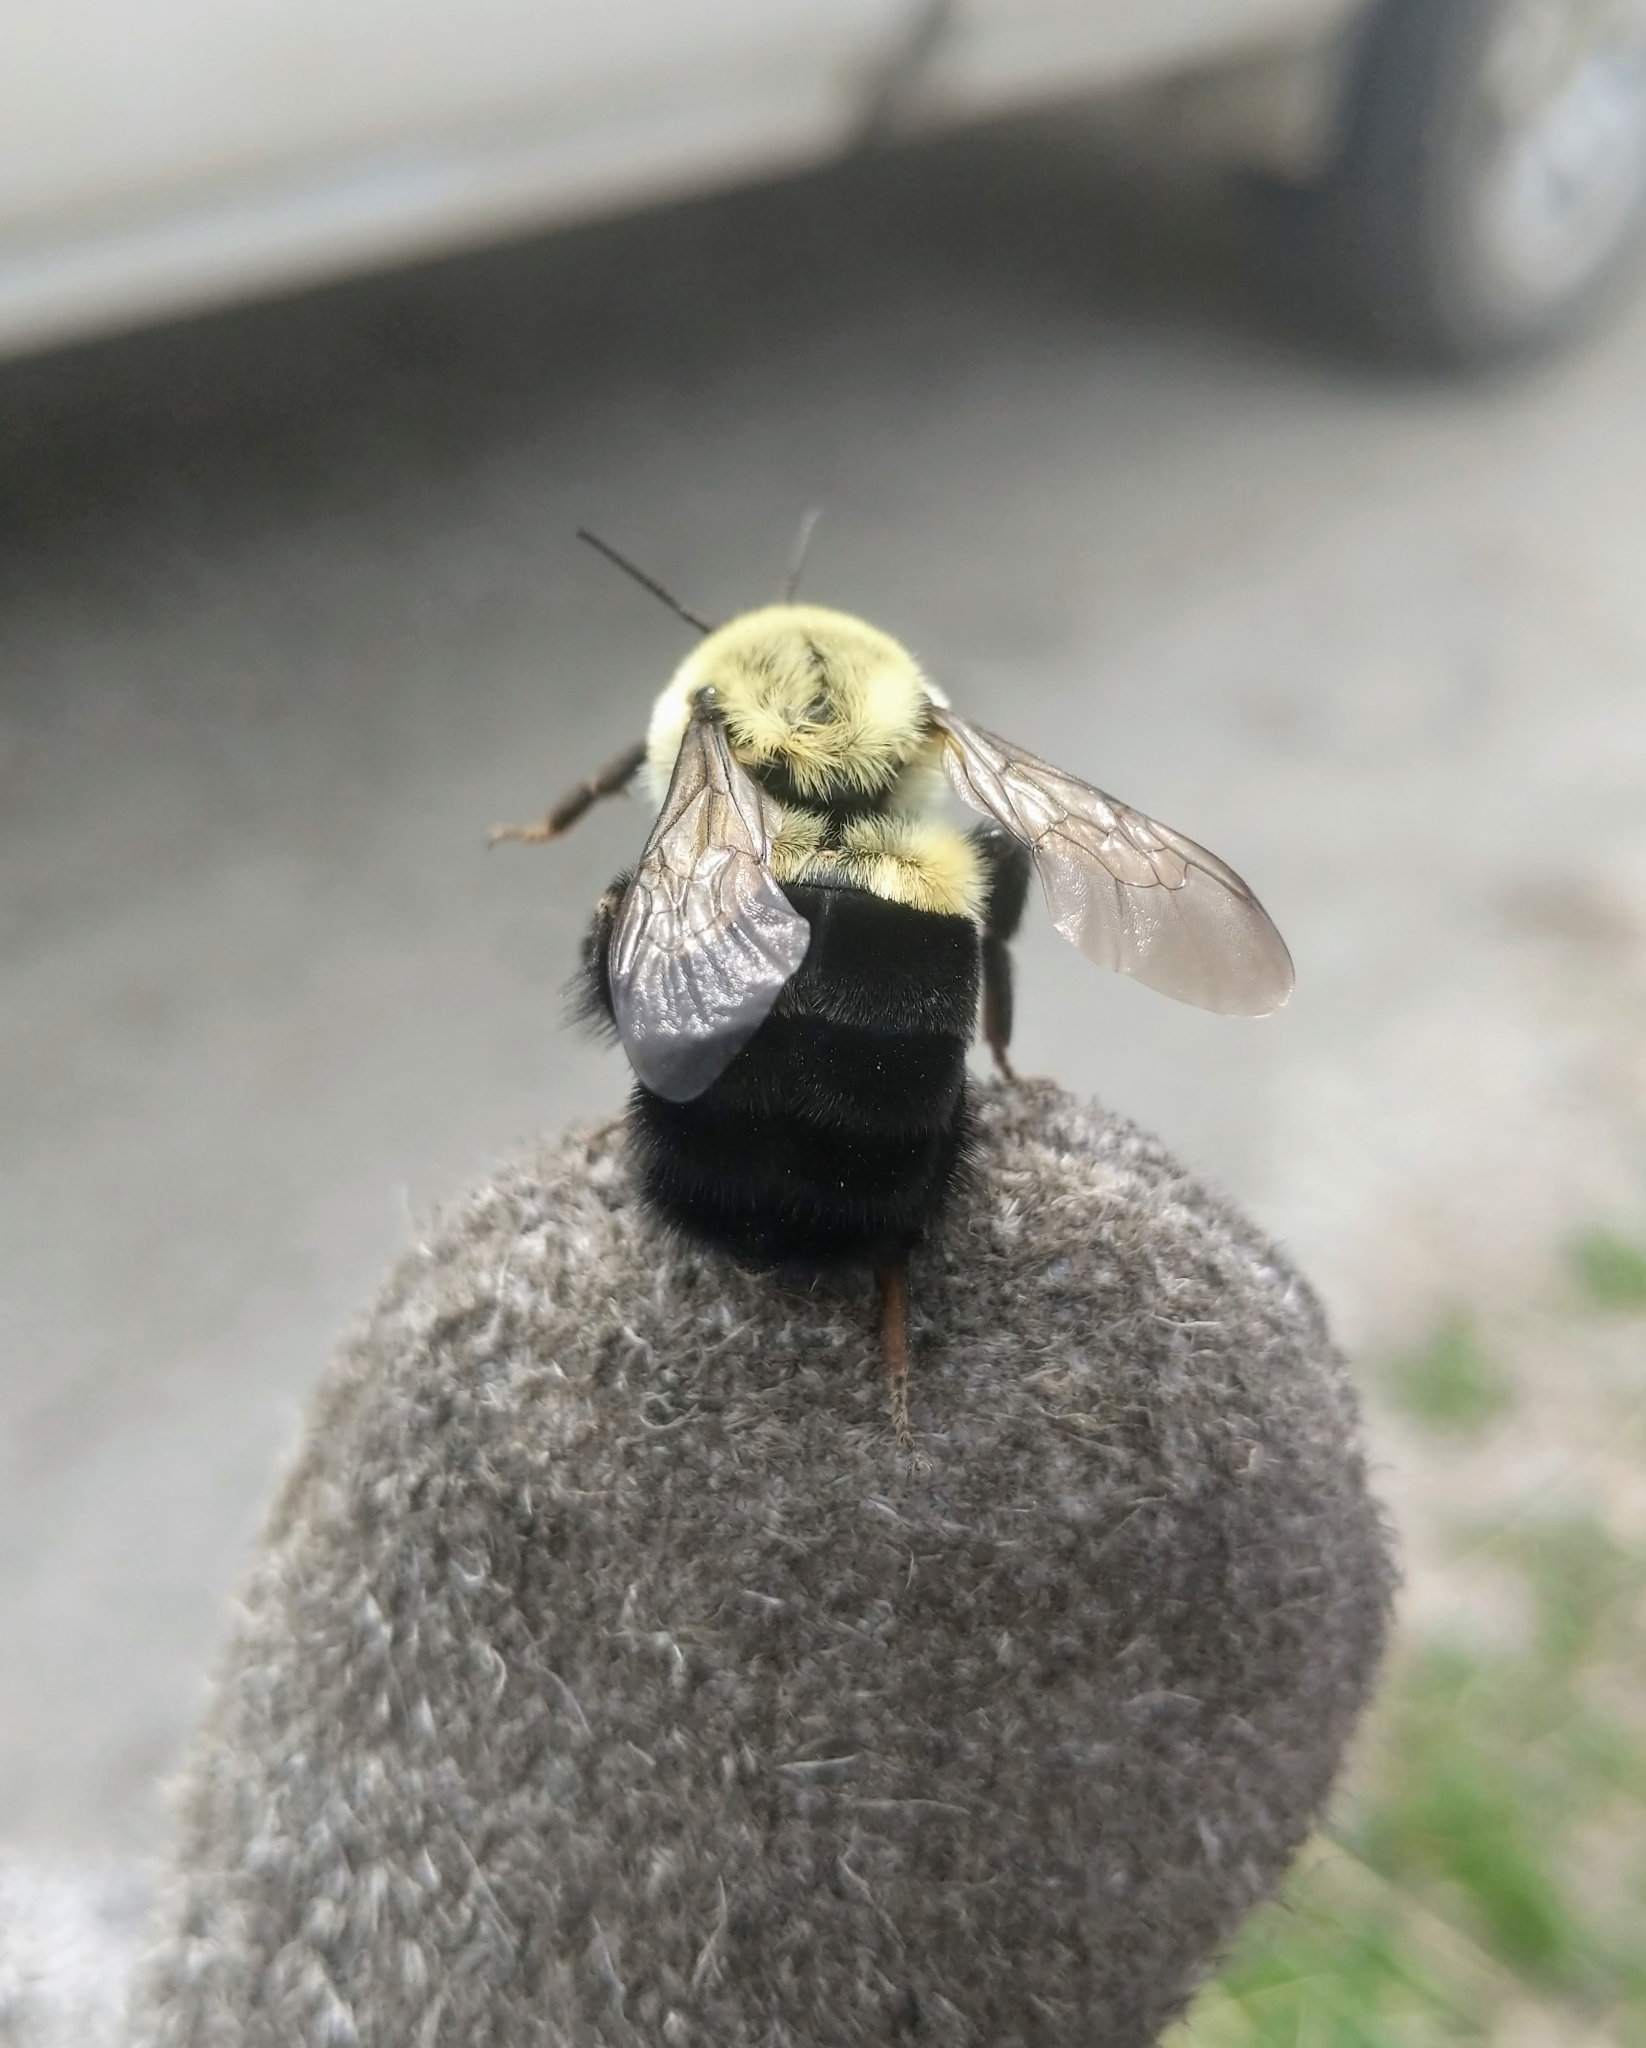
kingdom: Animalia
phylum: Arthropoda
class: Insecta
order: Hymenoptera
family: Apidae
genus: Bombus
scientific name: Bombus impatiens
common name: Common eastern bumble bee
